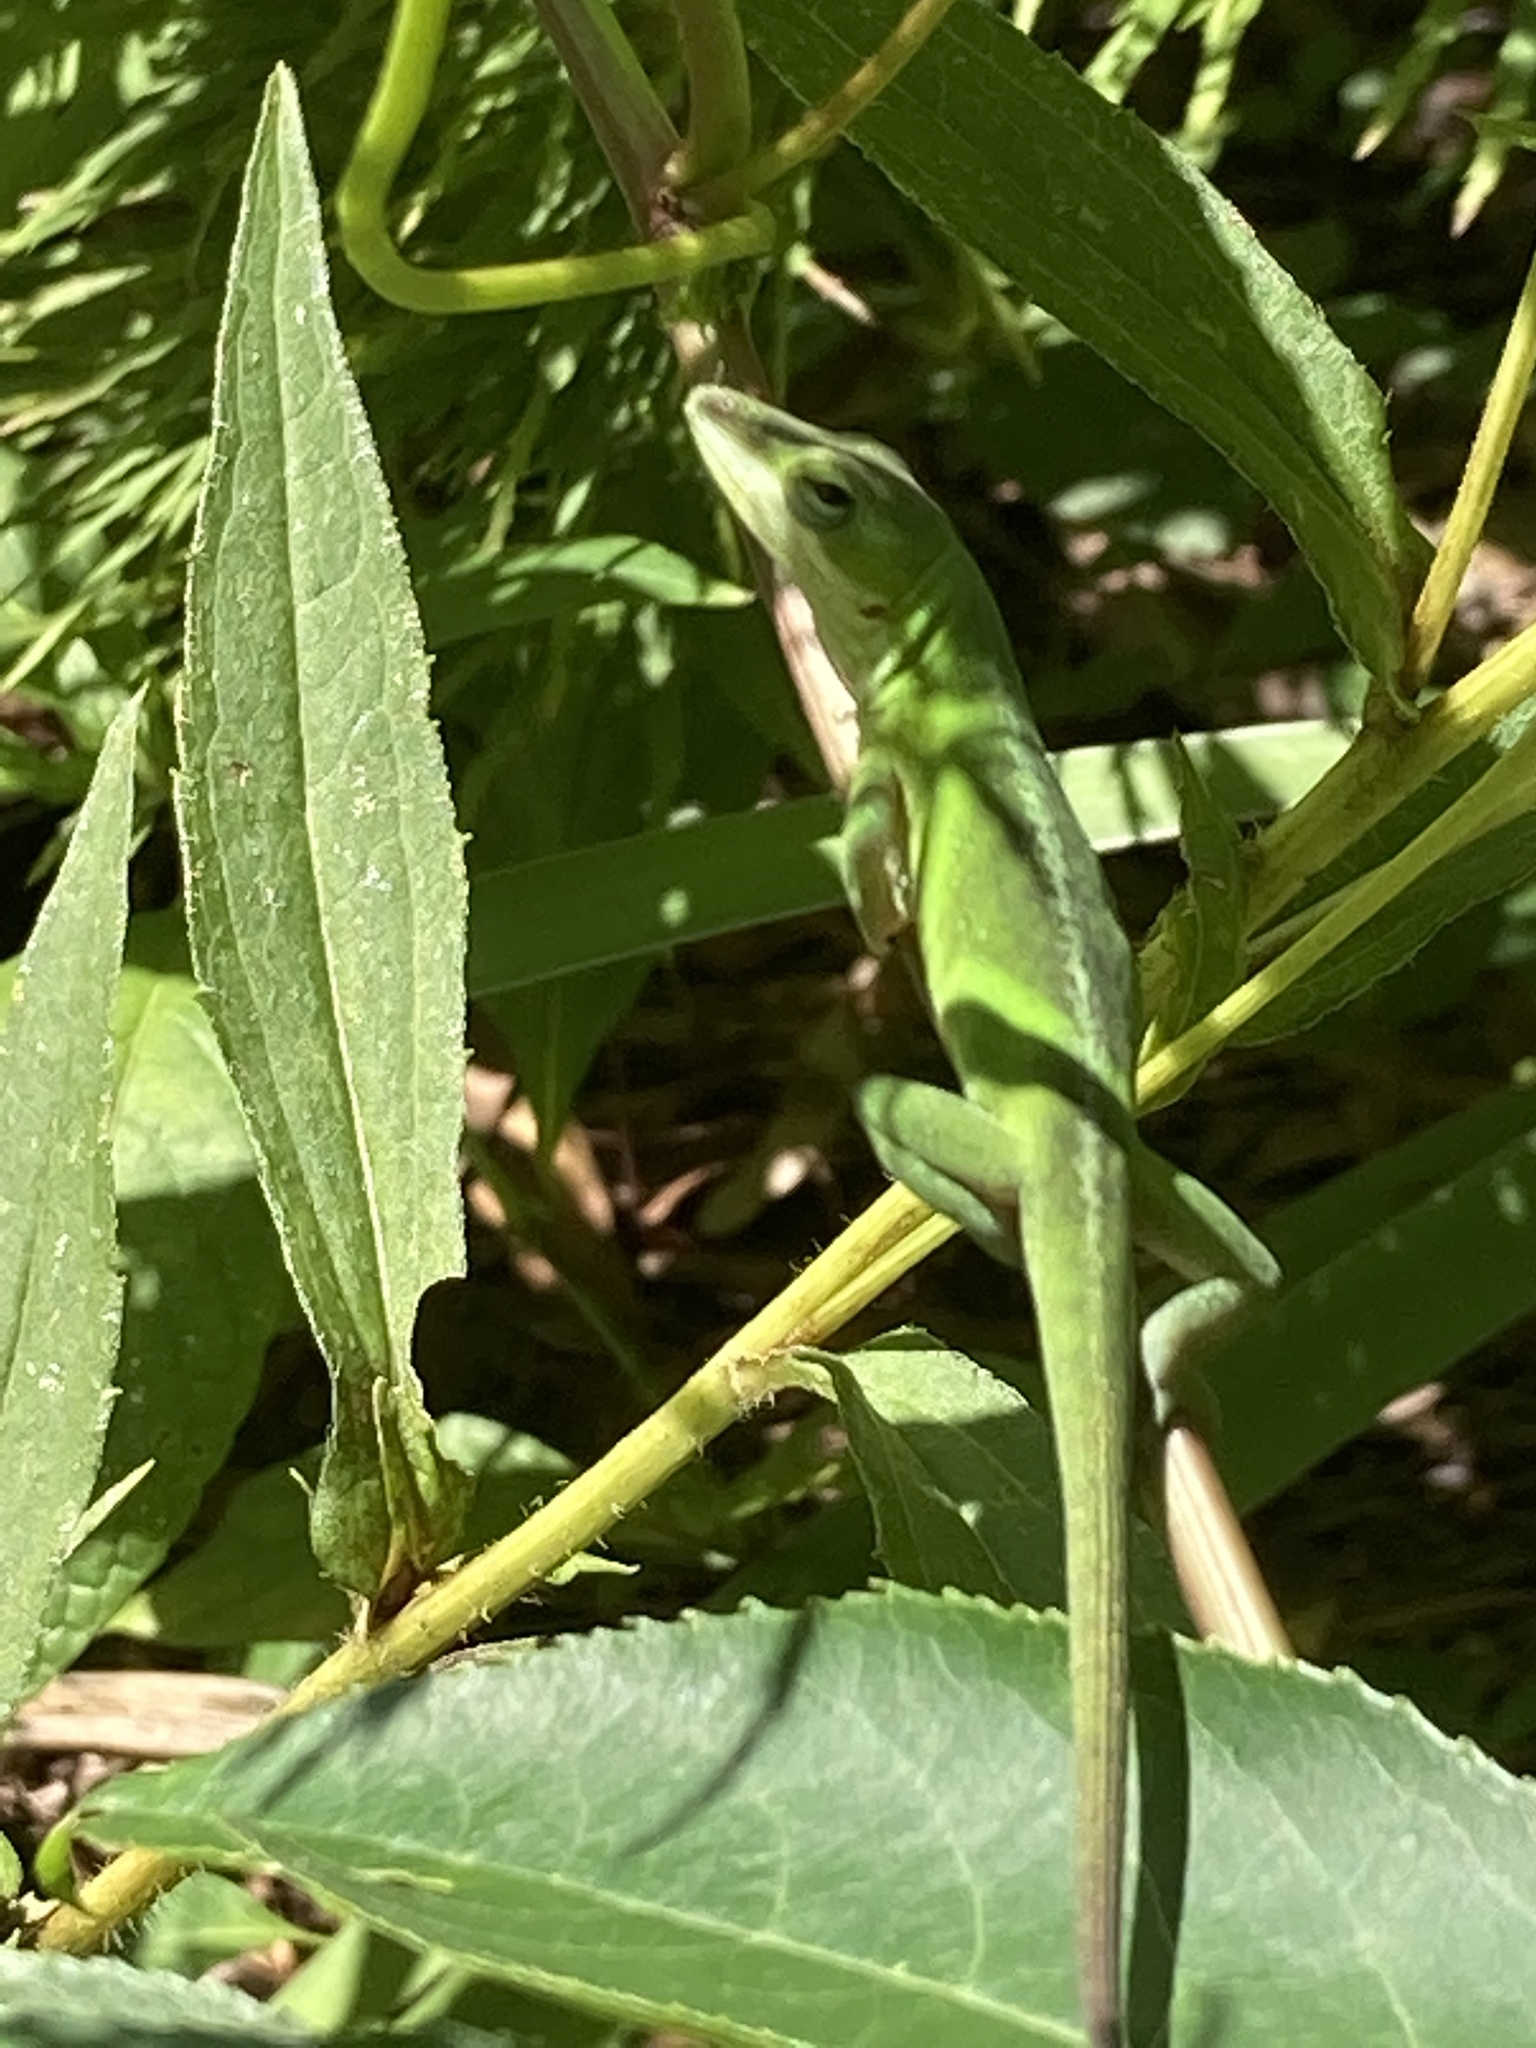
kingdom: Animalia
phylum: Chordata
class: Squamata
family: Dactyloidae
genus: Anolis
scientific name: Anolis carolinensis
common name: Green anole
